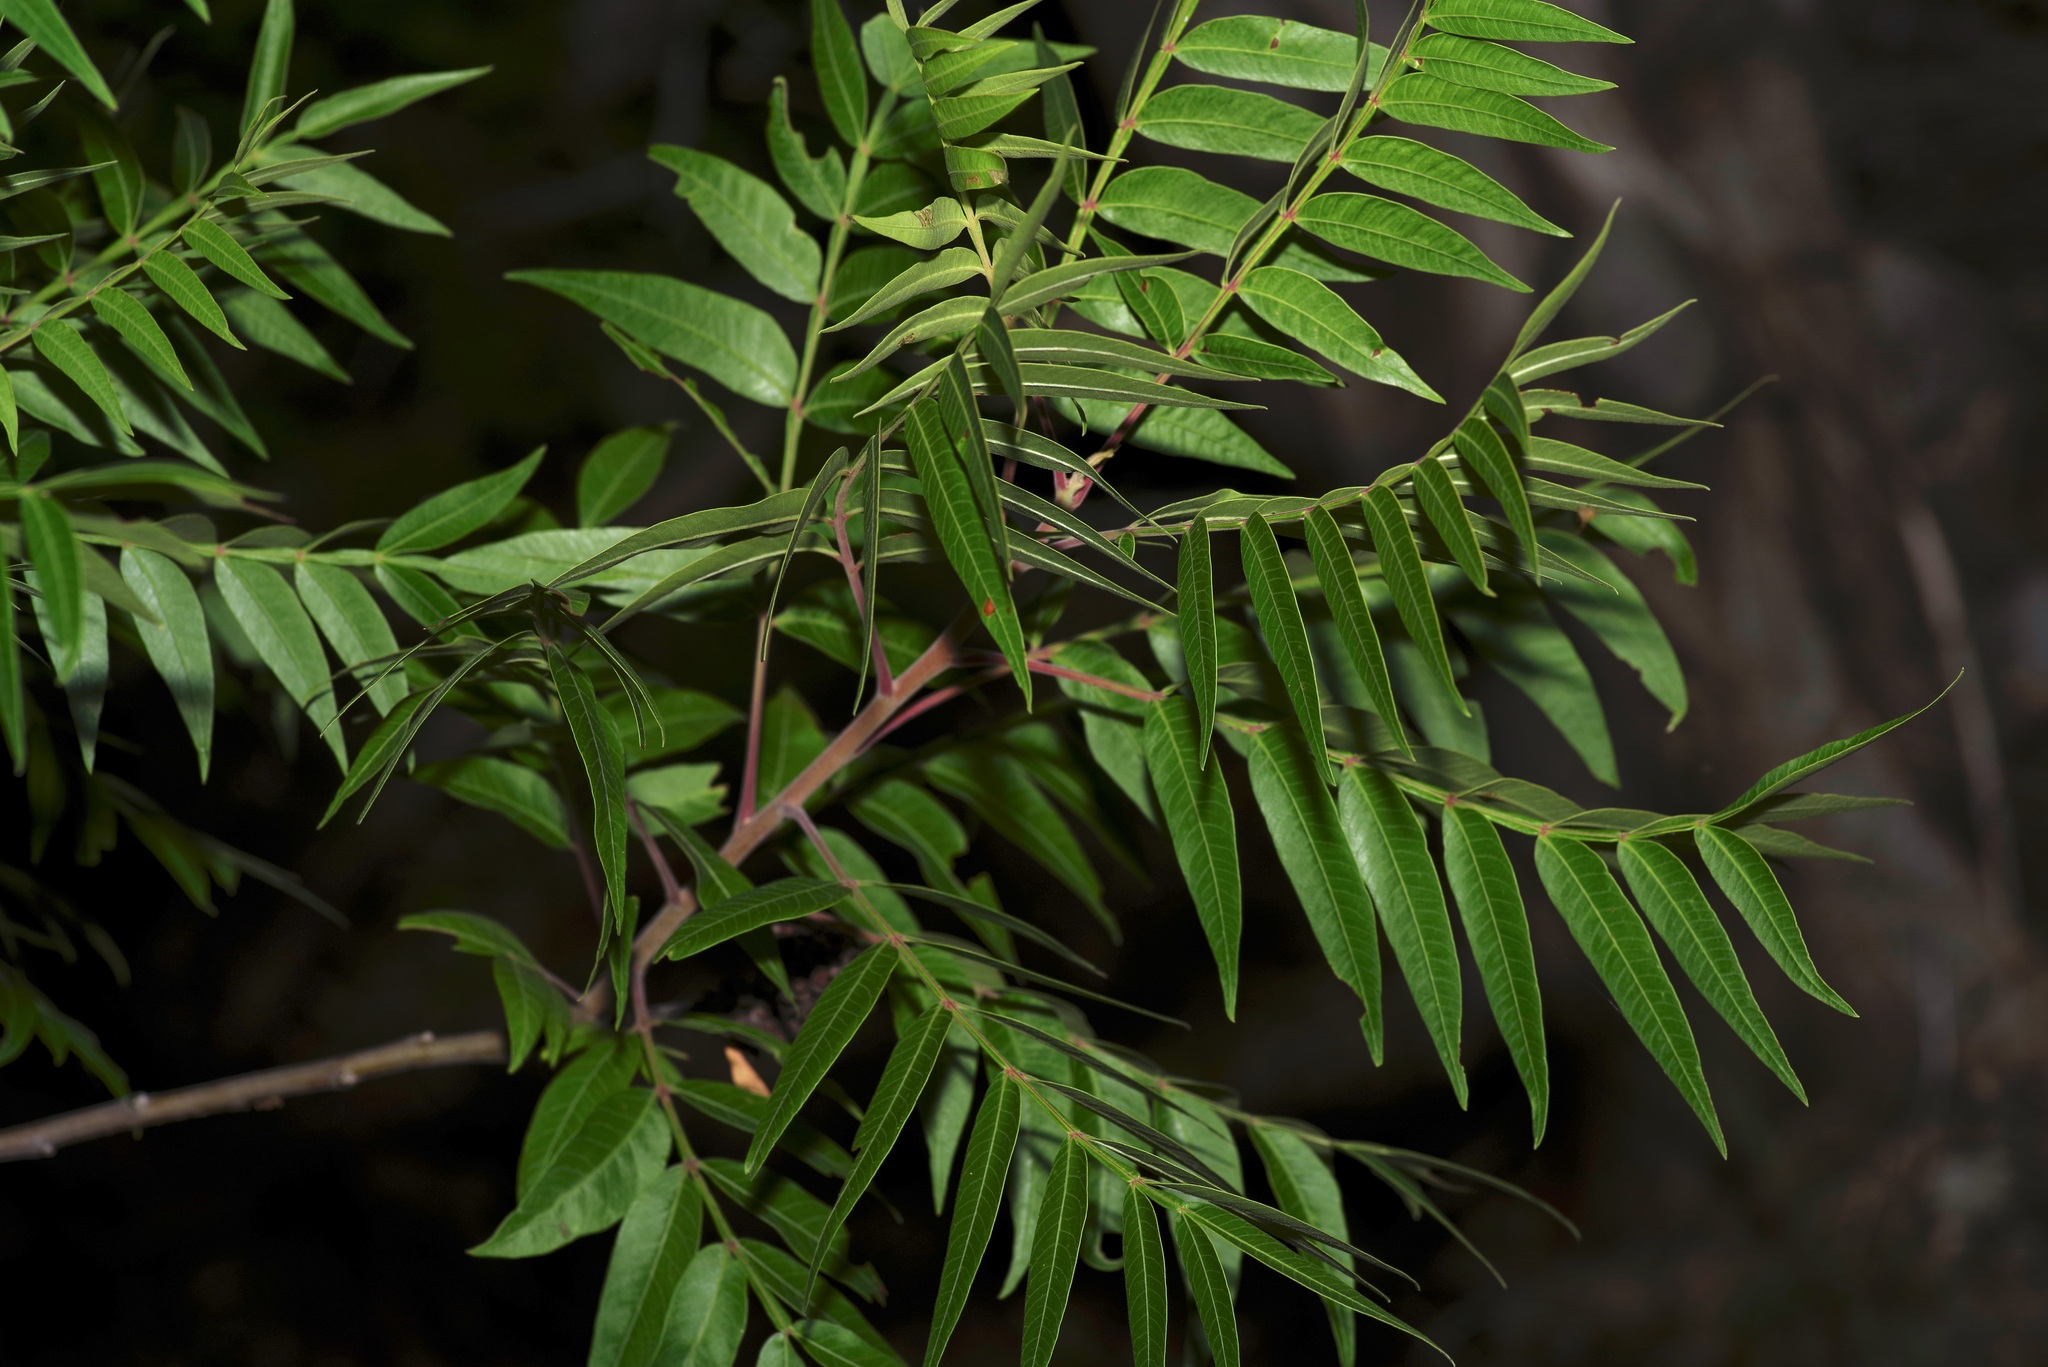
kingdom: Plantae
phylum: Tracheophyta
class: Magnoliopsida
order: Sapindales
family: Anacardiaceae
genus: Rhus
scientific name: Rhus lanceolata
